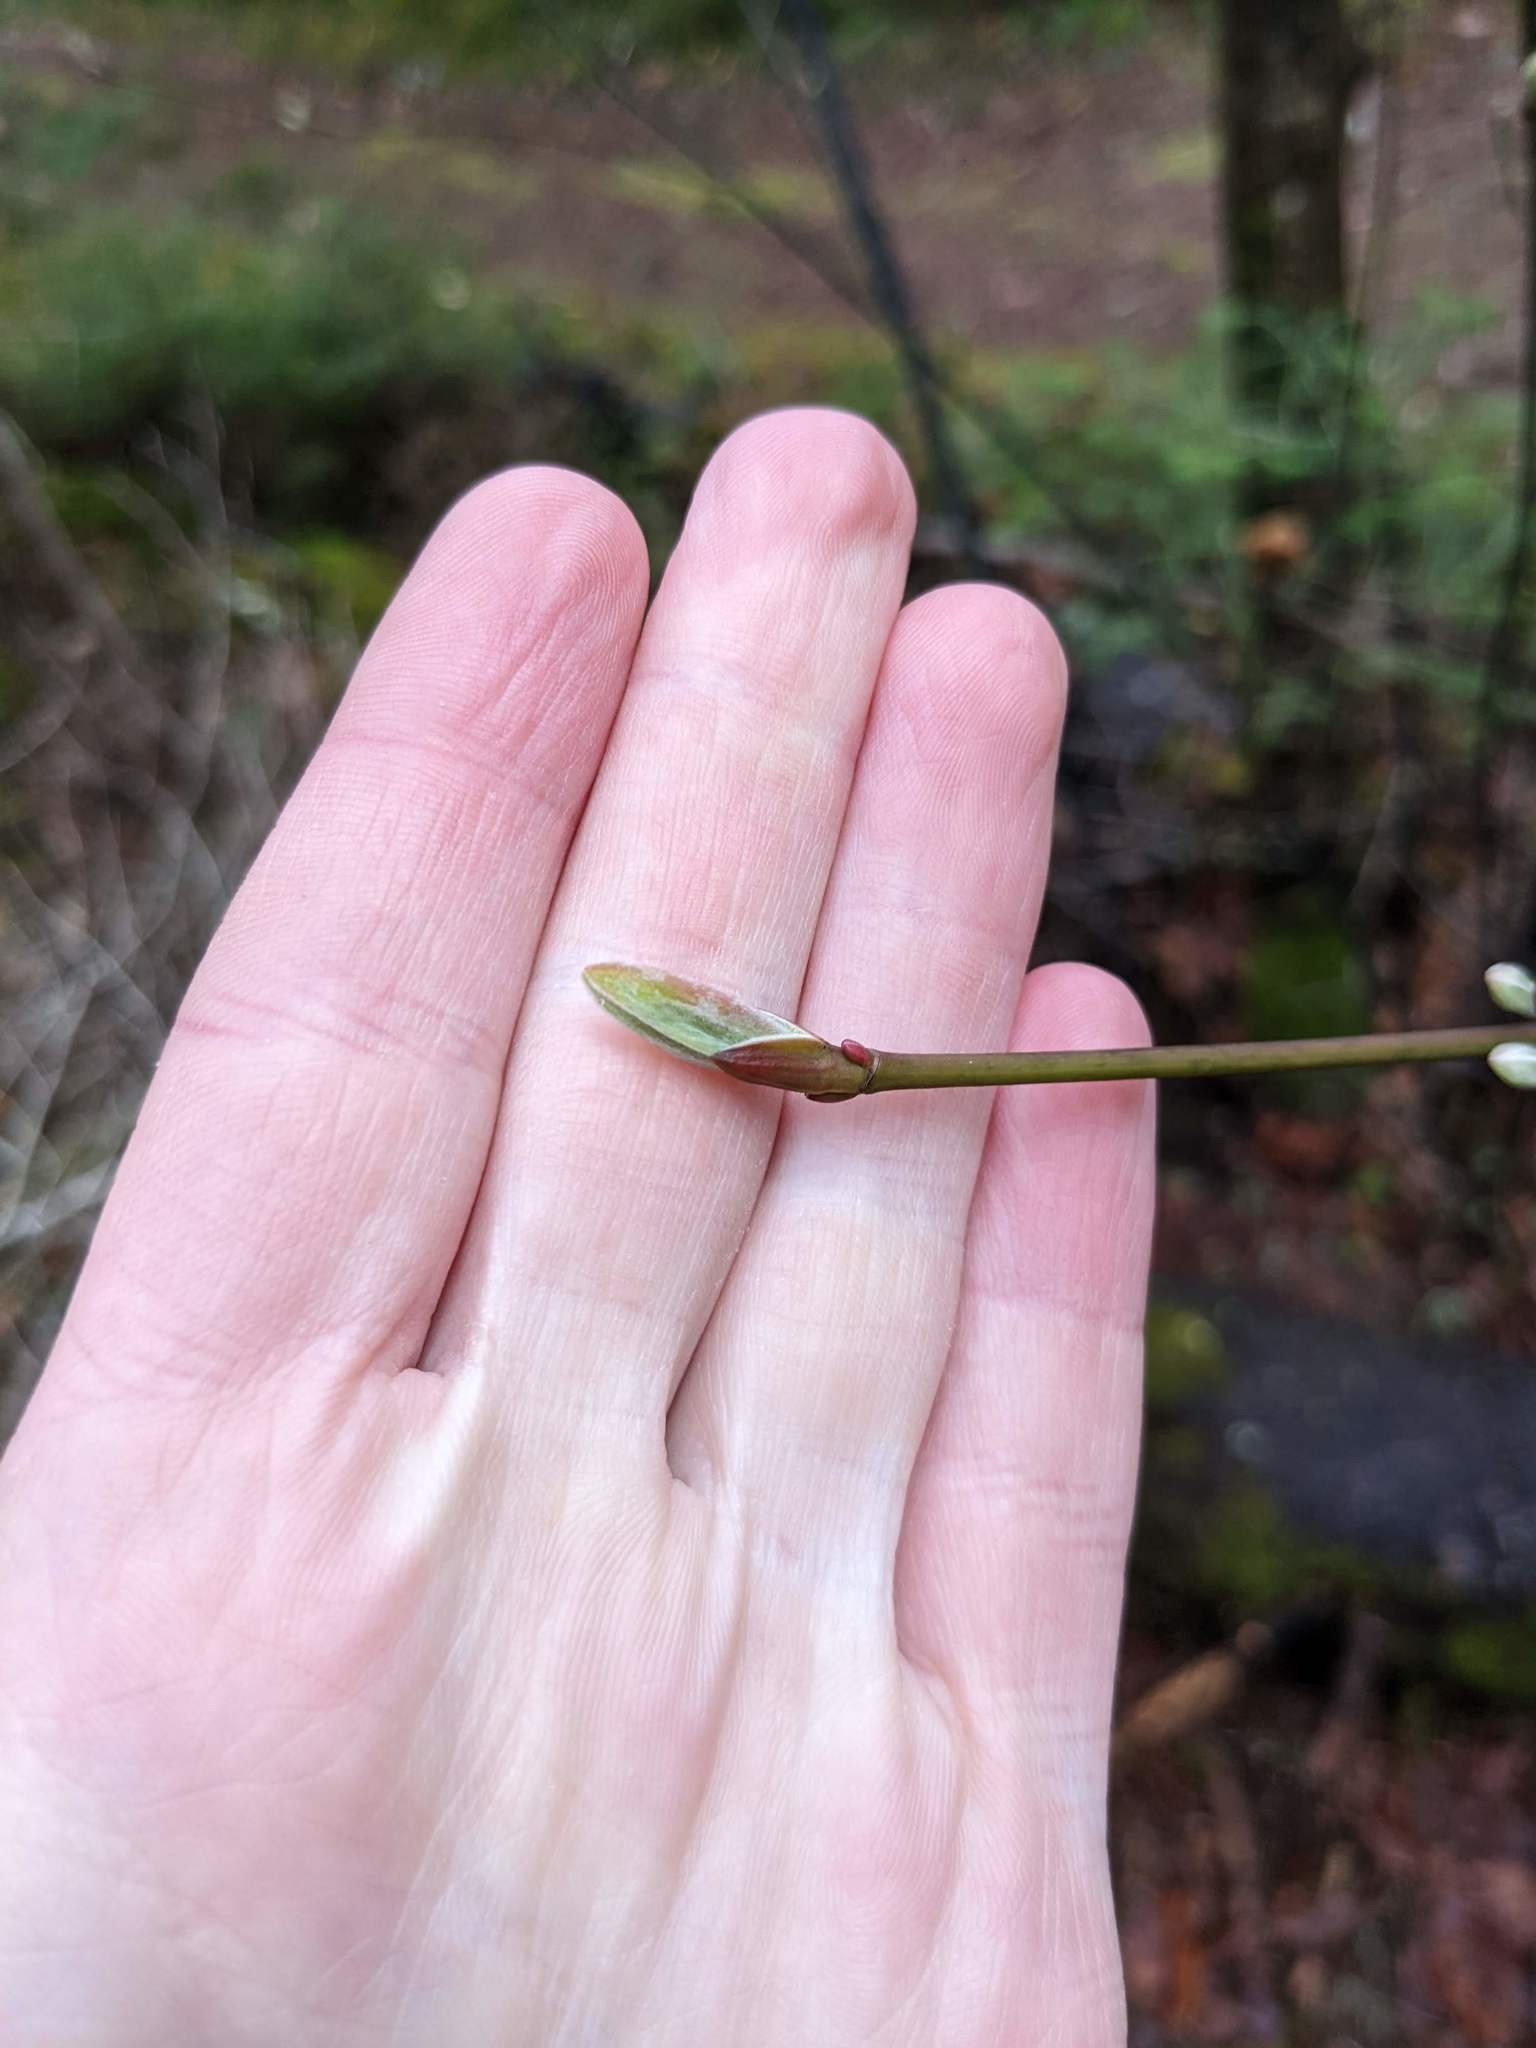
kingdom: Plantae
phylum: Tracheophyta
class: Magnoliopsida
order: Sapindales
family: Sapindaceae
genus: Acer
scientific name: Acer pensylvanicum
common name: Moosewood
